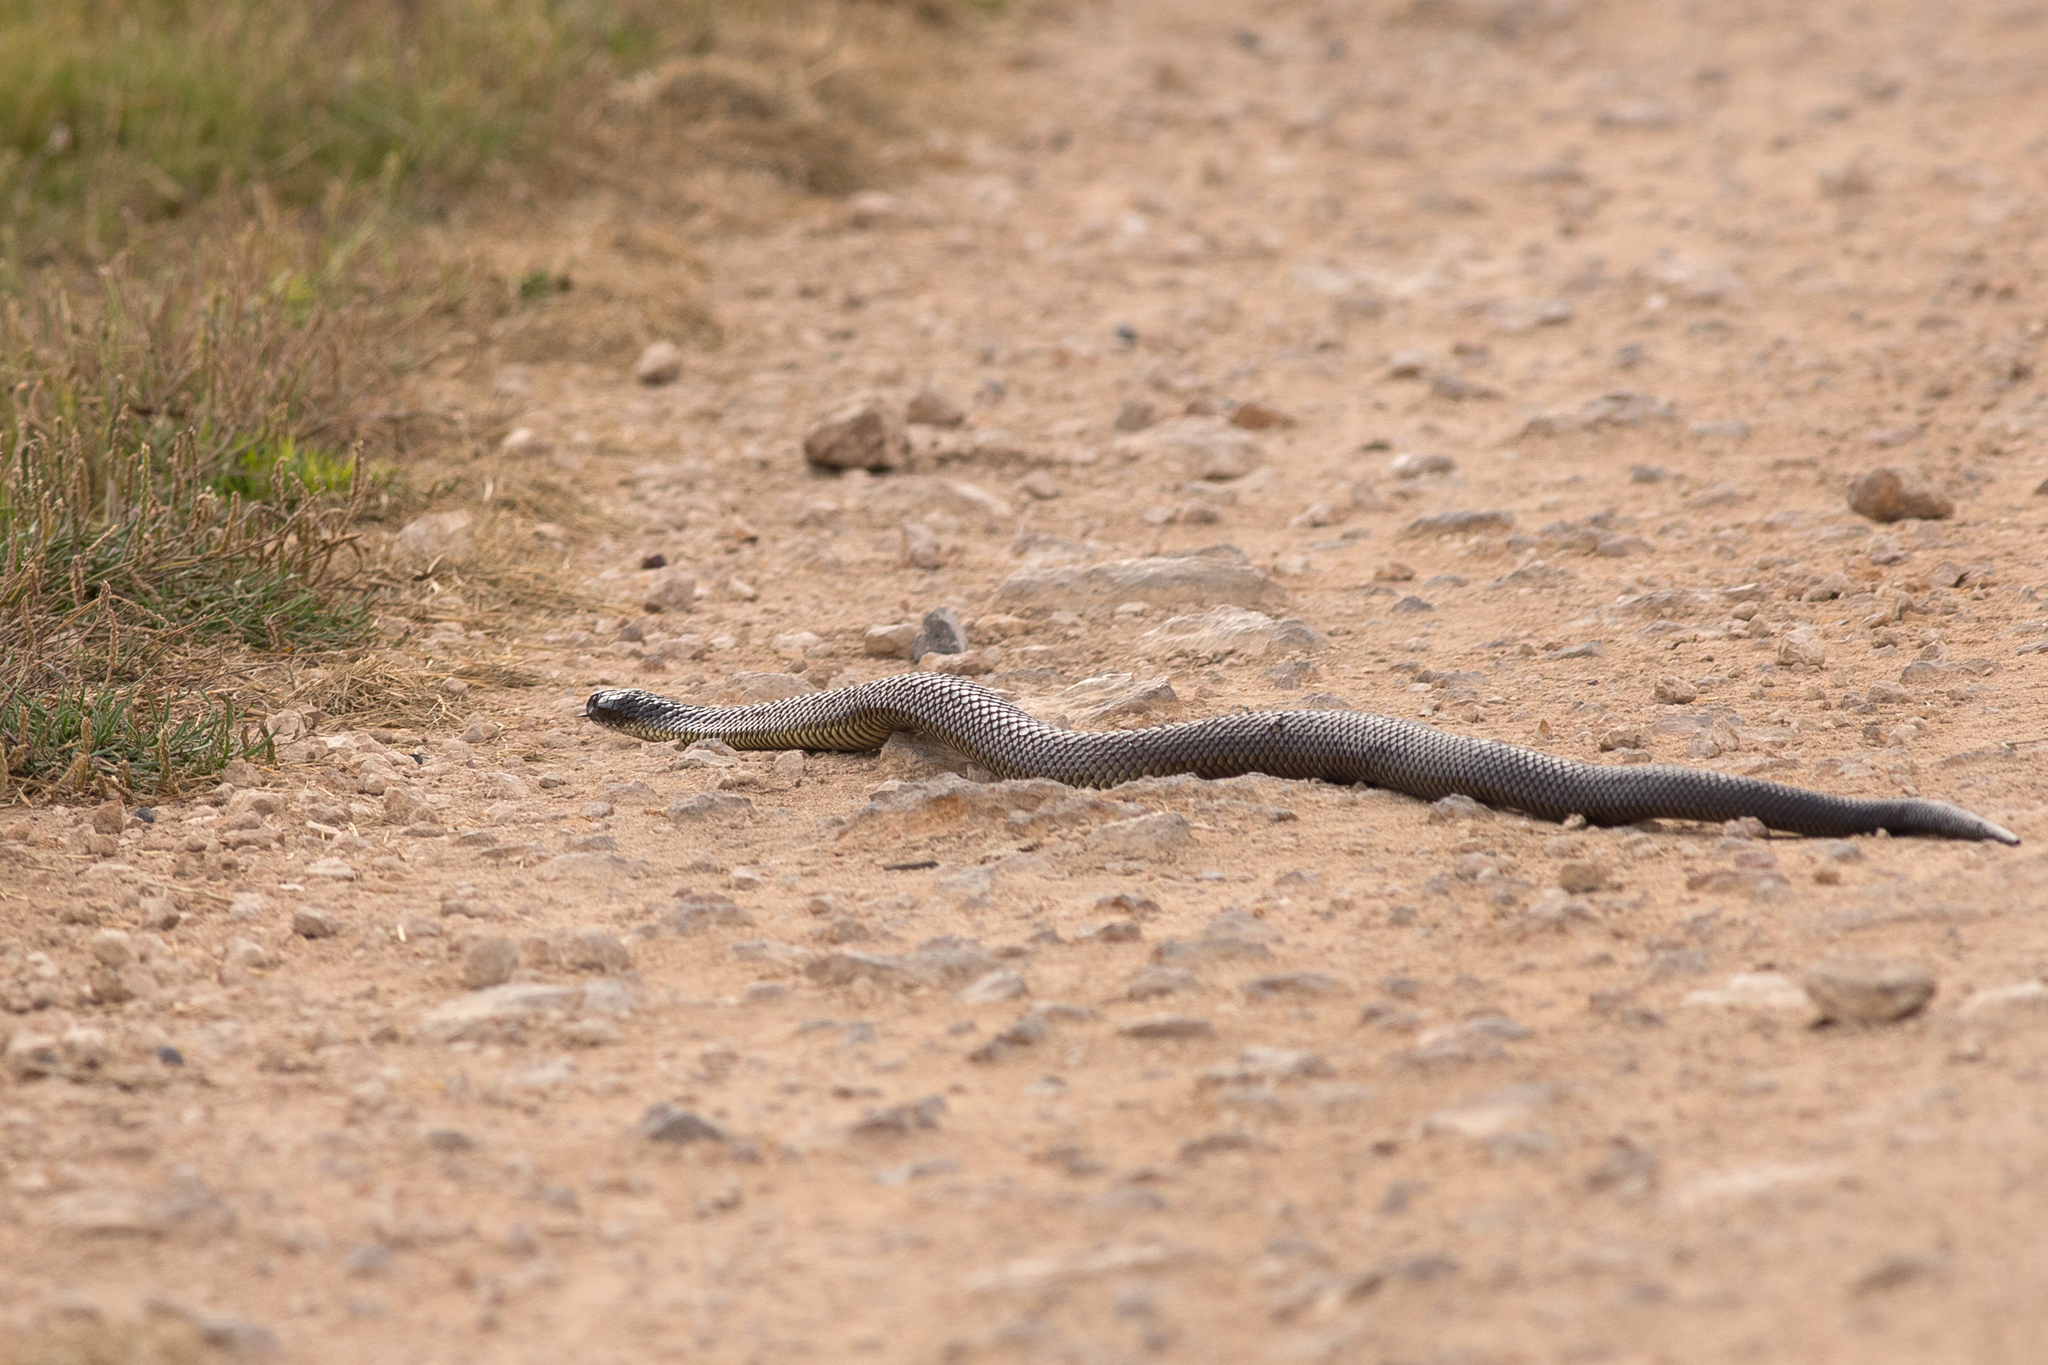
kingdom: Animalia
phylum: Chordata
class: Squamata
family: Elapidae
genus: Notechis
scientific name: Notechis scutatus
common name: Mainland tiger snake
